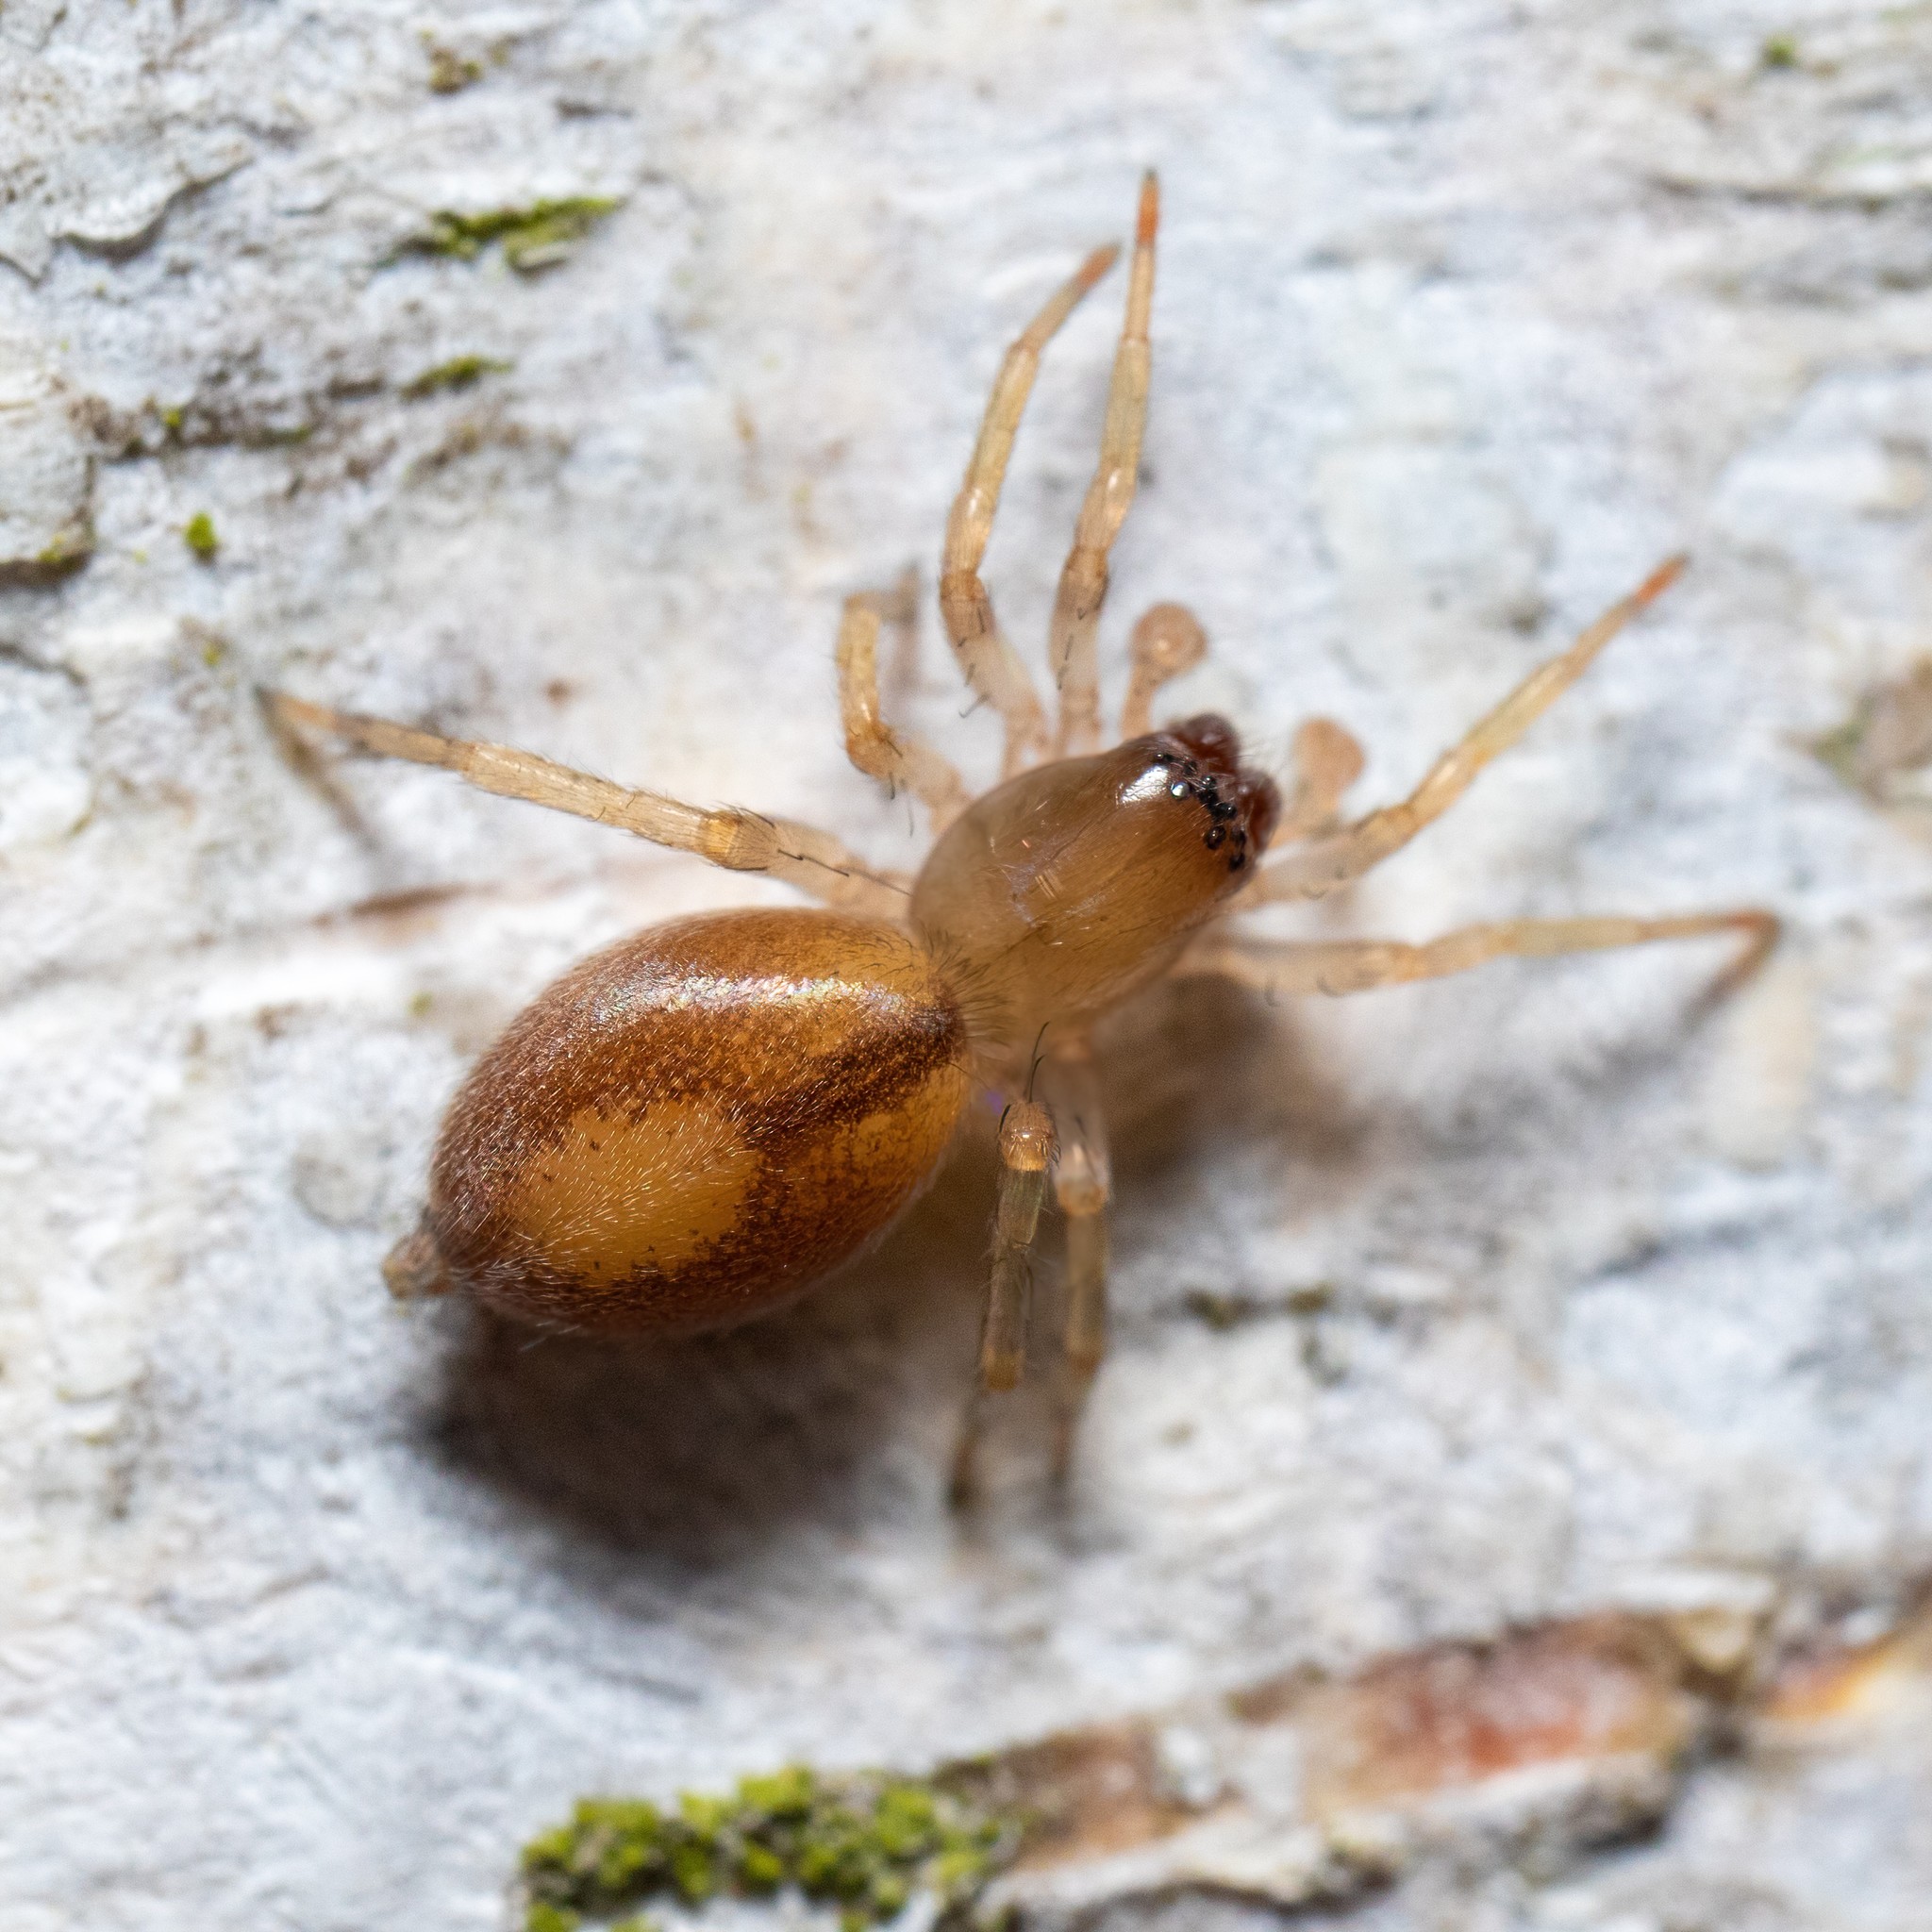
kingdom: Animalia
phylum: Arthropoda
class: Arachnida
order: Araneae
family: Clubionidae
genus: Porrhoclubiona
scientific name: Porrhoclubiona leucaspis
